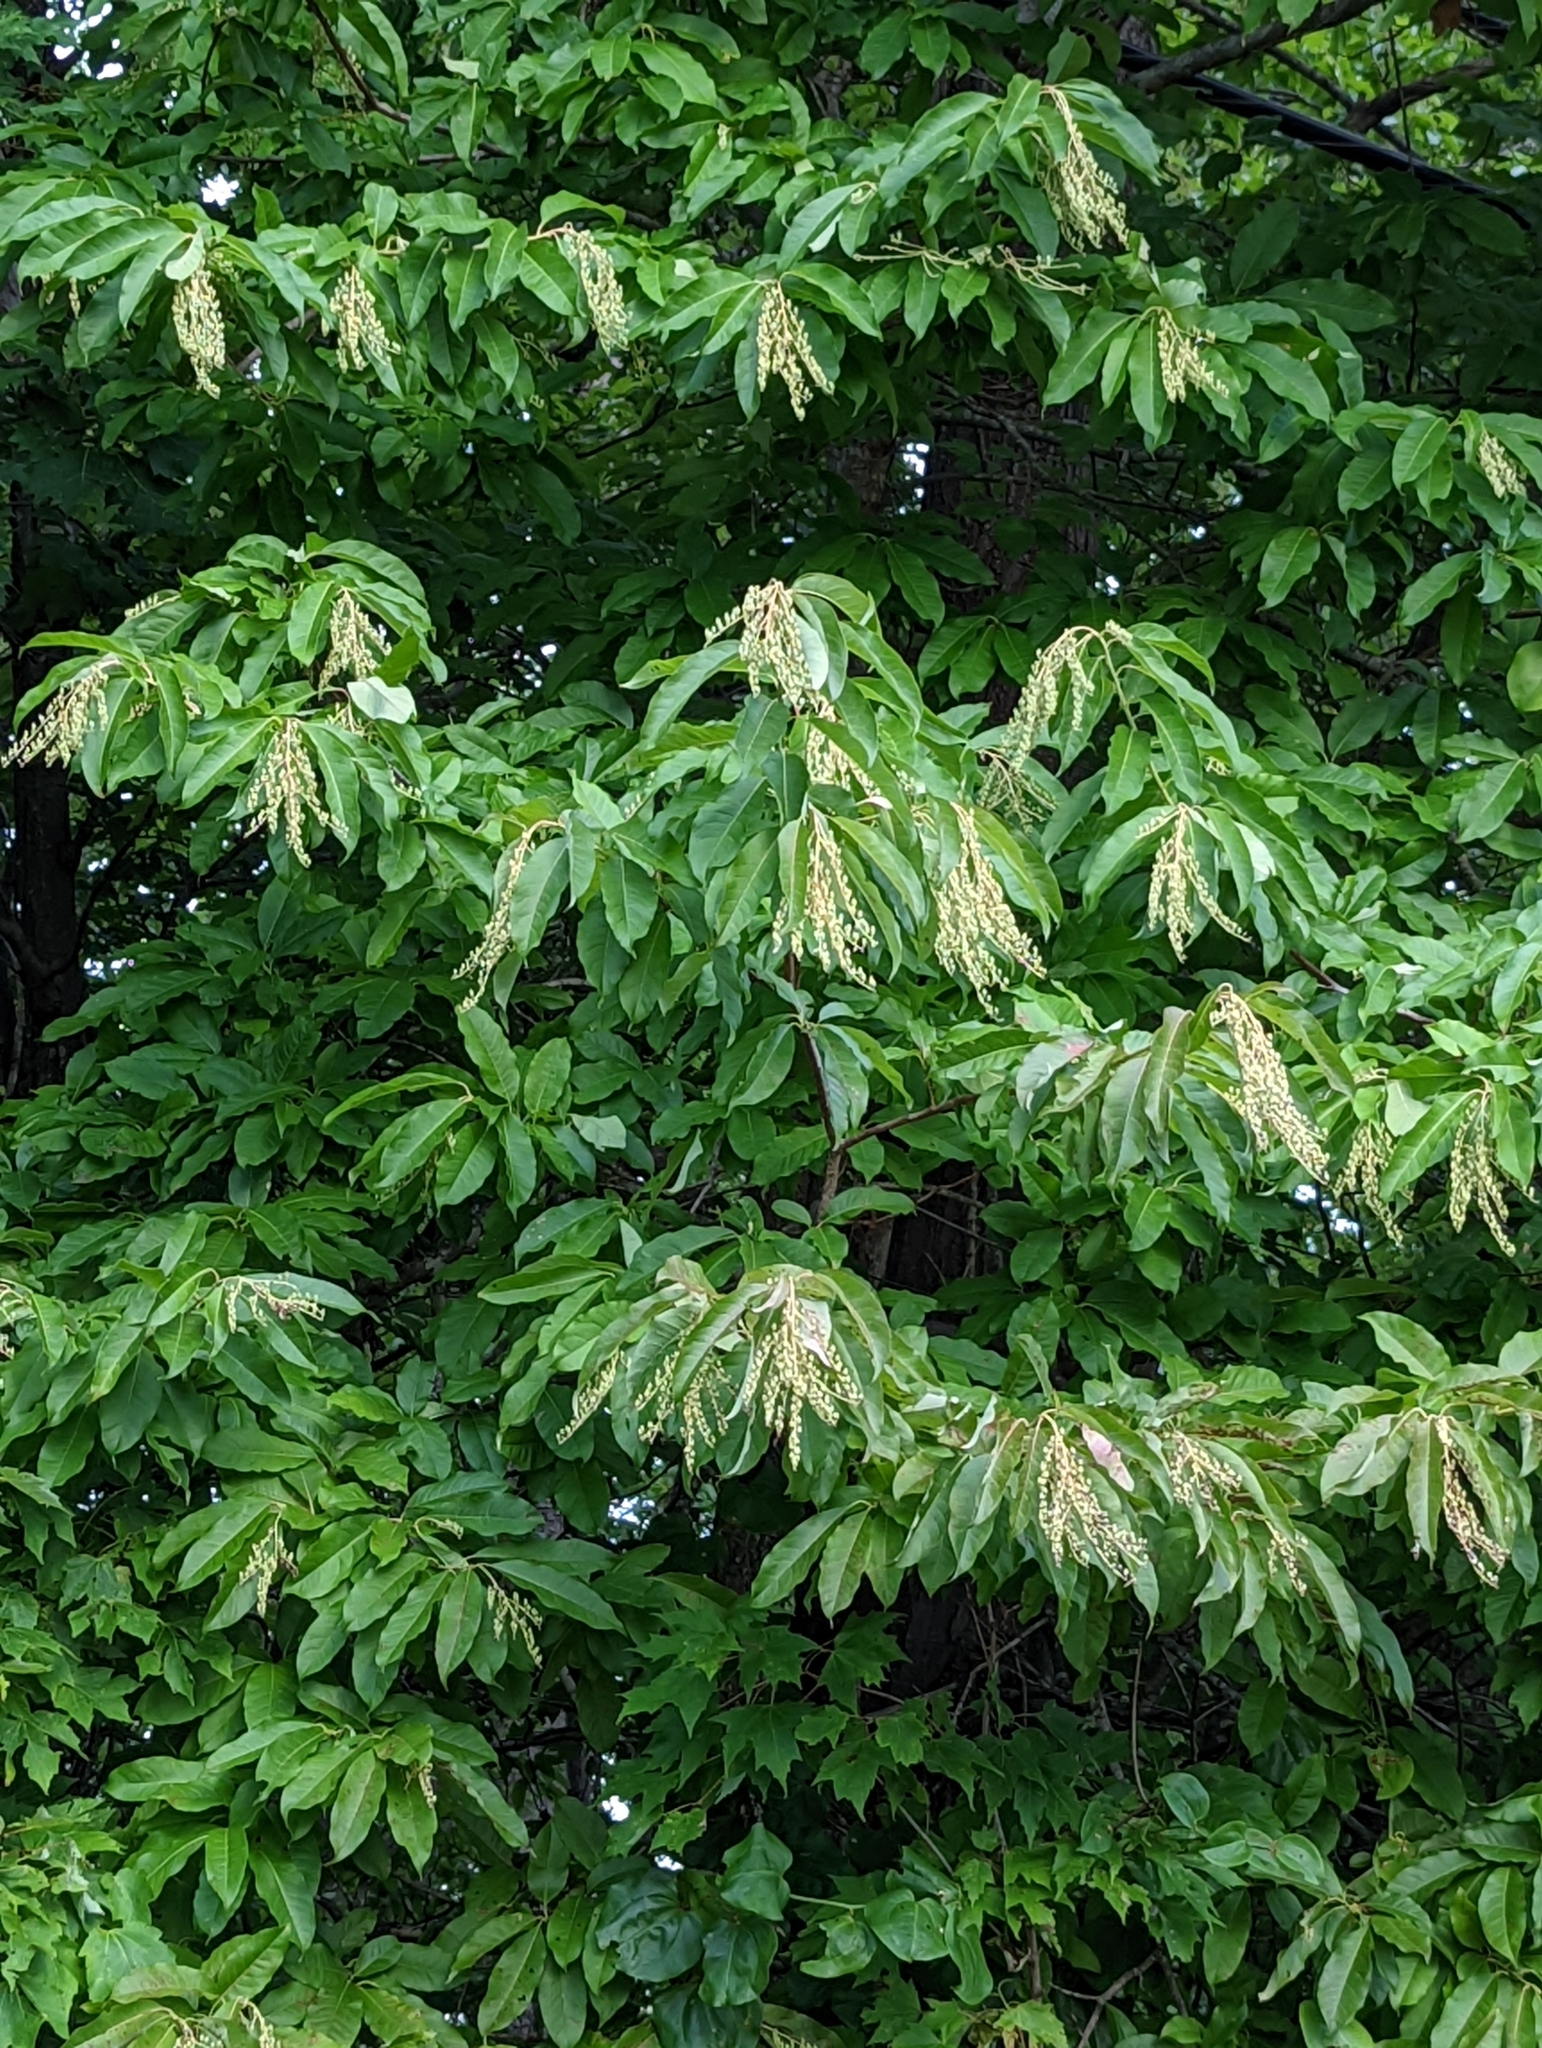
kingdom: Plantae
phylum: Tracheophyta
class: Magnoliopsida
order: Ericales
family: Ericaceae
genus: Oxydendrum
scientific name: Oxydendrum arboreum
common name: Sourwood
